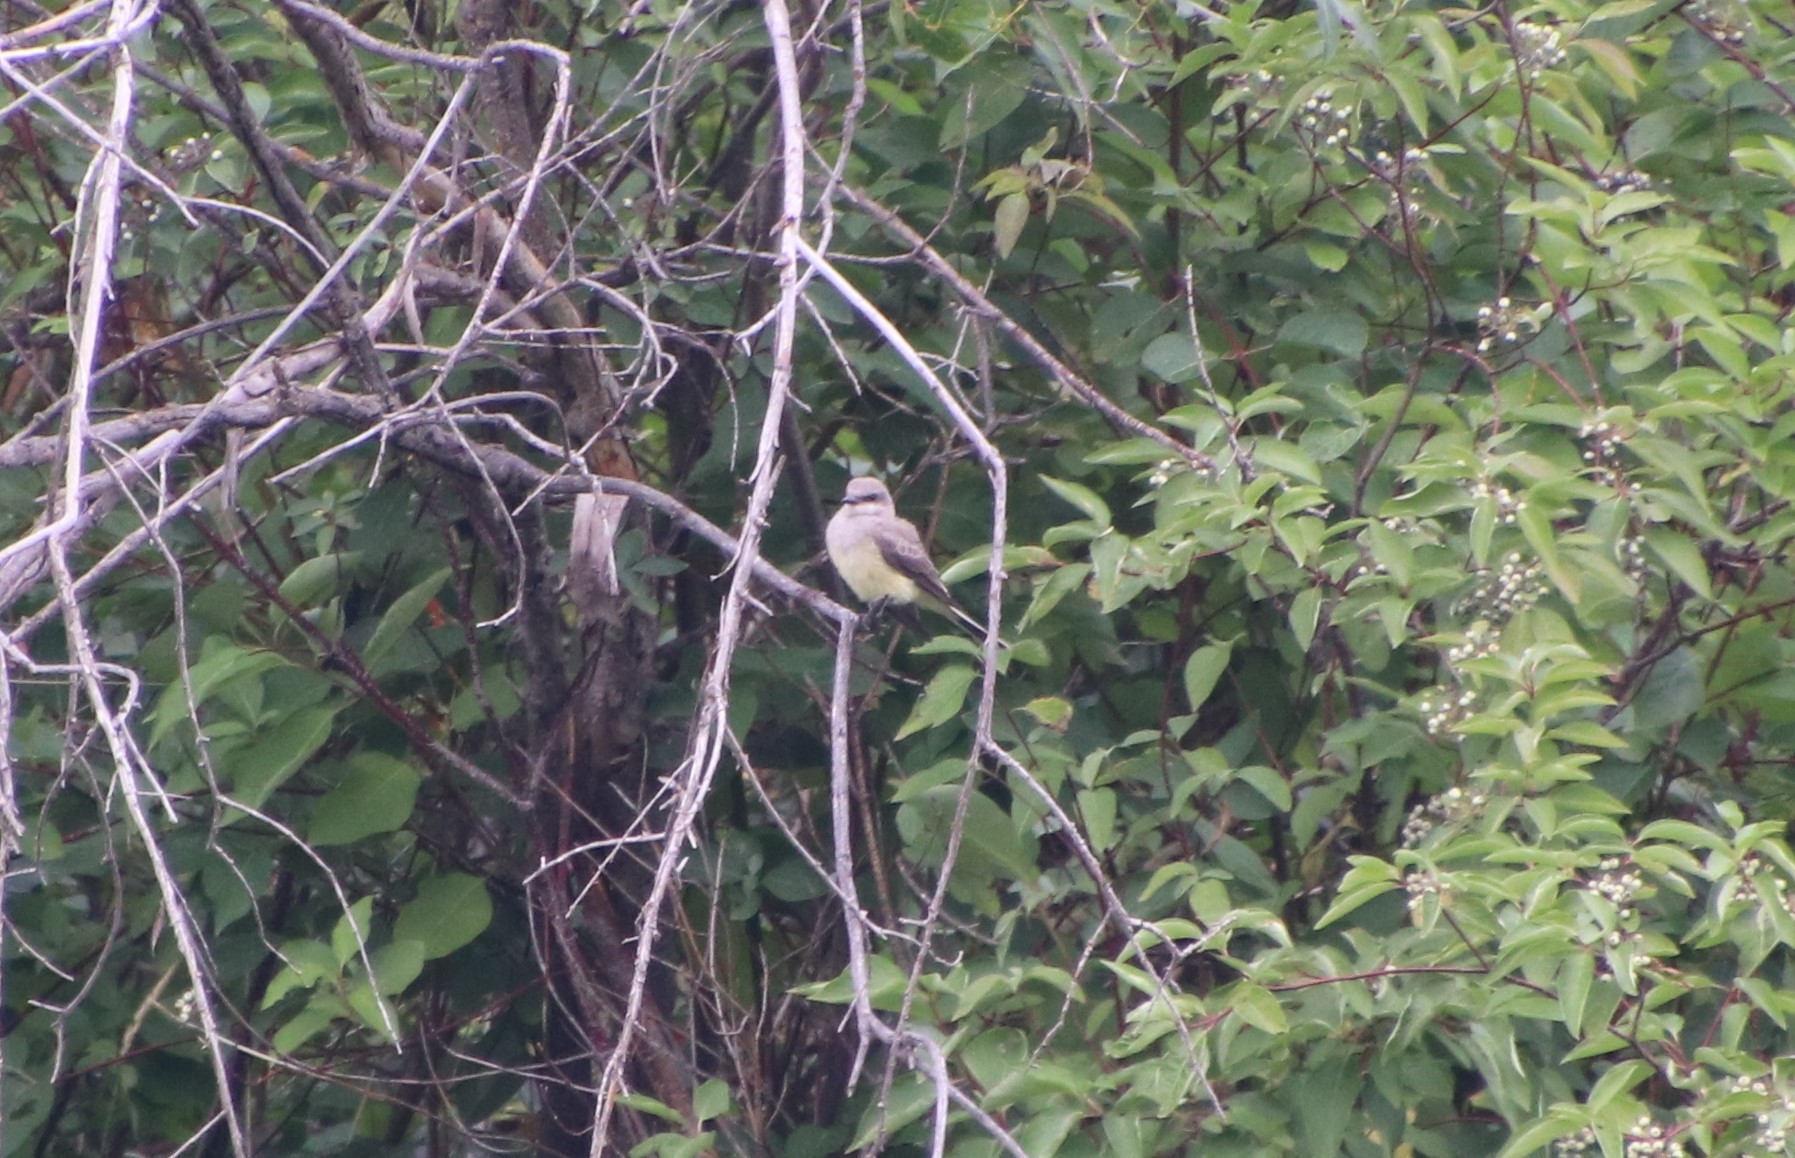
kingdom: Animalia
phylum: Chordata
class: Aves
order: Passeriformes
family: Tyrannidae
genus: Tyrannus
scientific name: Tyrannus verticalis
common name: Western kingbird
